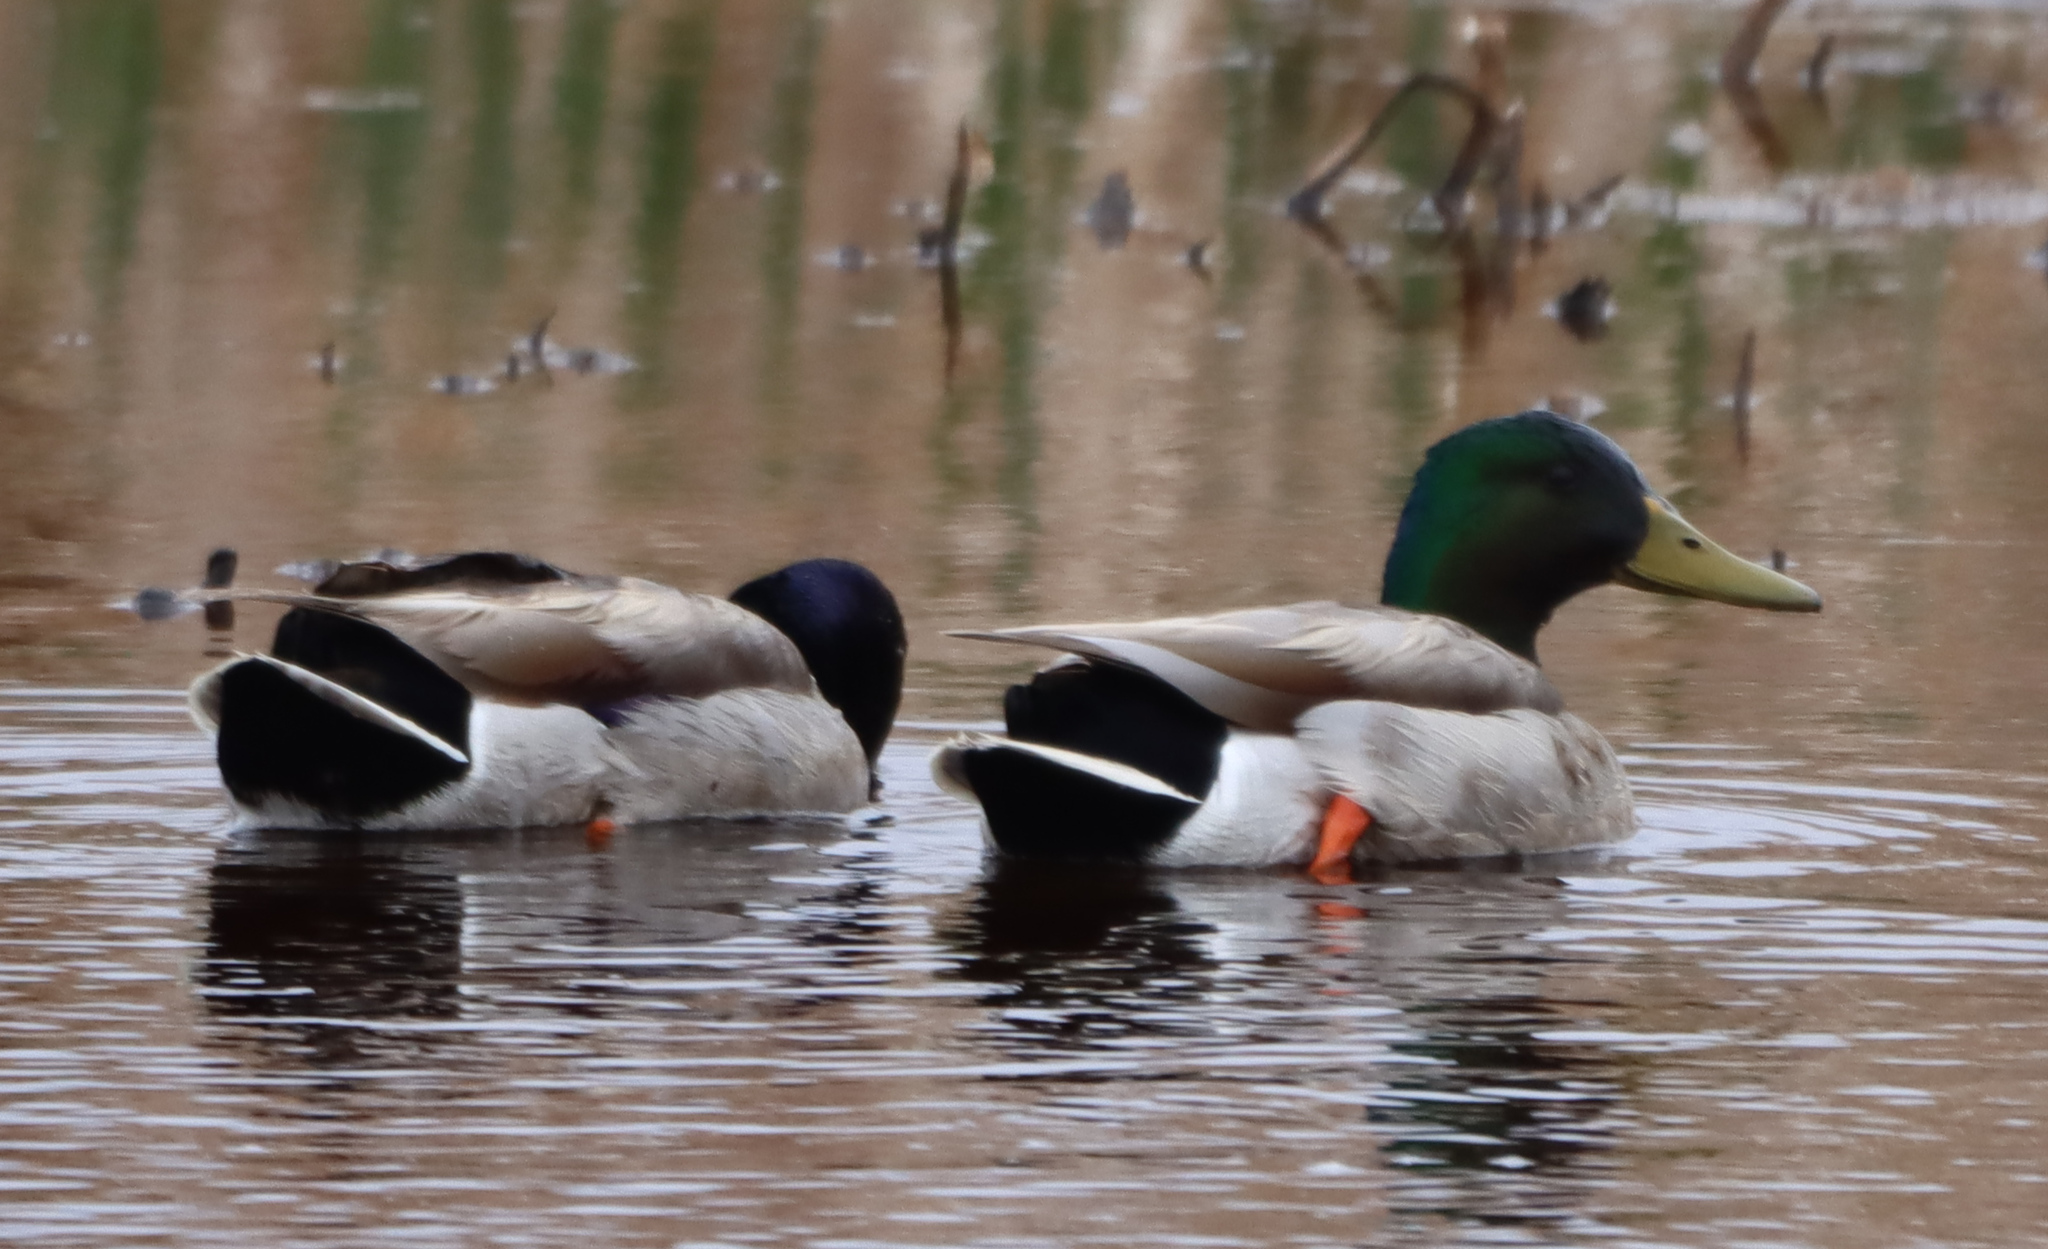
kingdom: Animalia
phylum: Chordata
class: Aves
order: Anseriformes
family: Anatidae
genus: Anas
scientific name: Anas platyrhynchos
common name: Mallard
